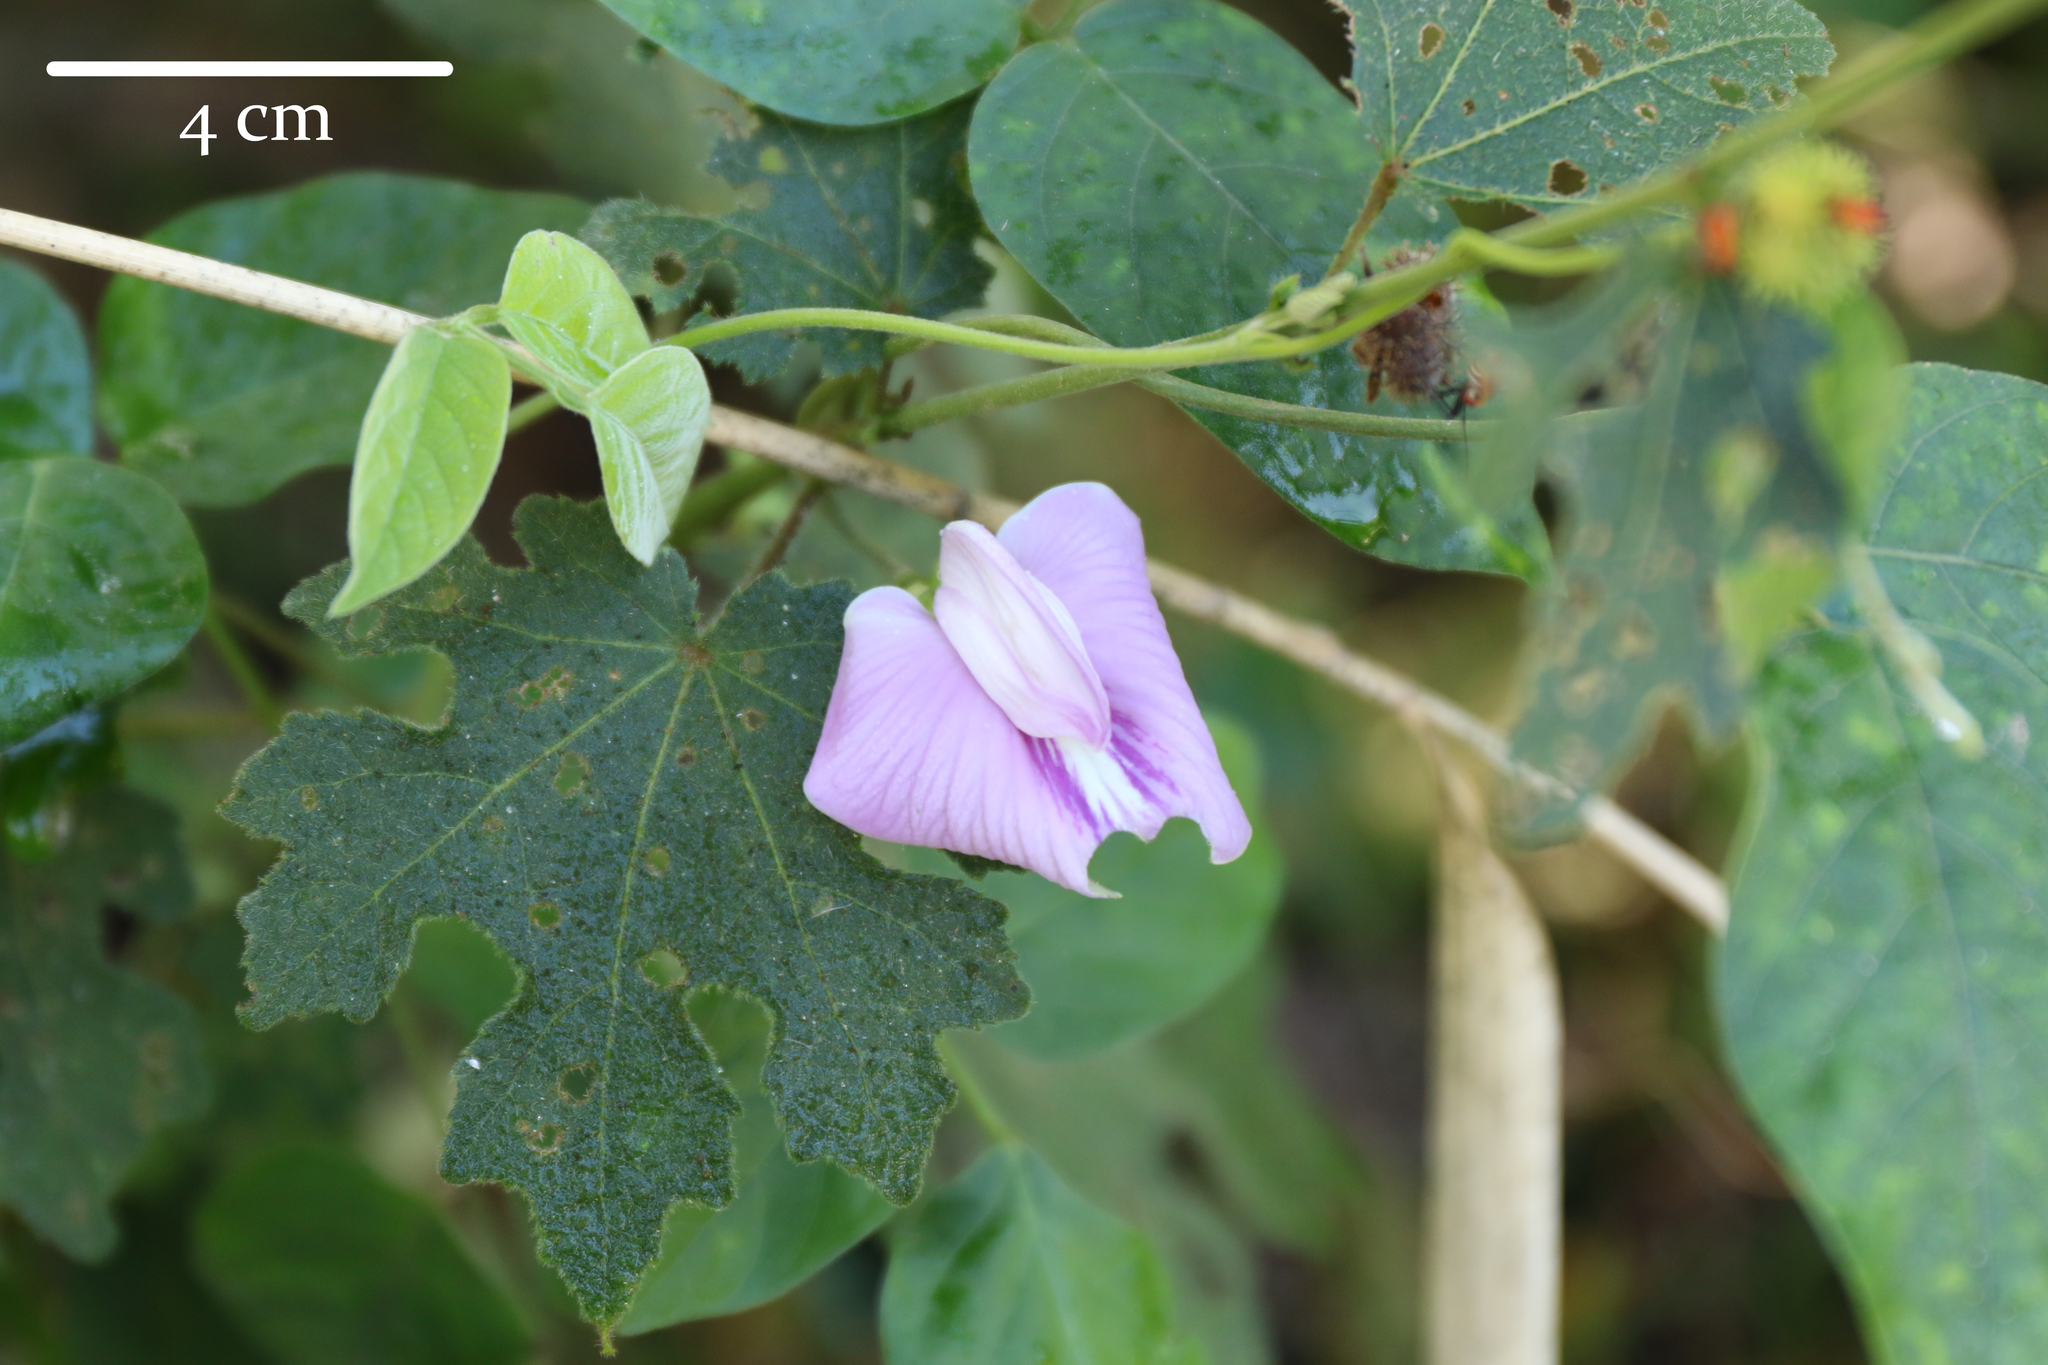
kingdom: Plantae
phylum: Tracheophyta
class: Magnoliopsida
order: Fabales
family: Fabaceae
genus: Centrosema
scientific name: Centrosema virginianum
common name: Butterfly-pea
